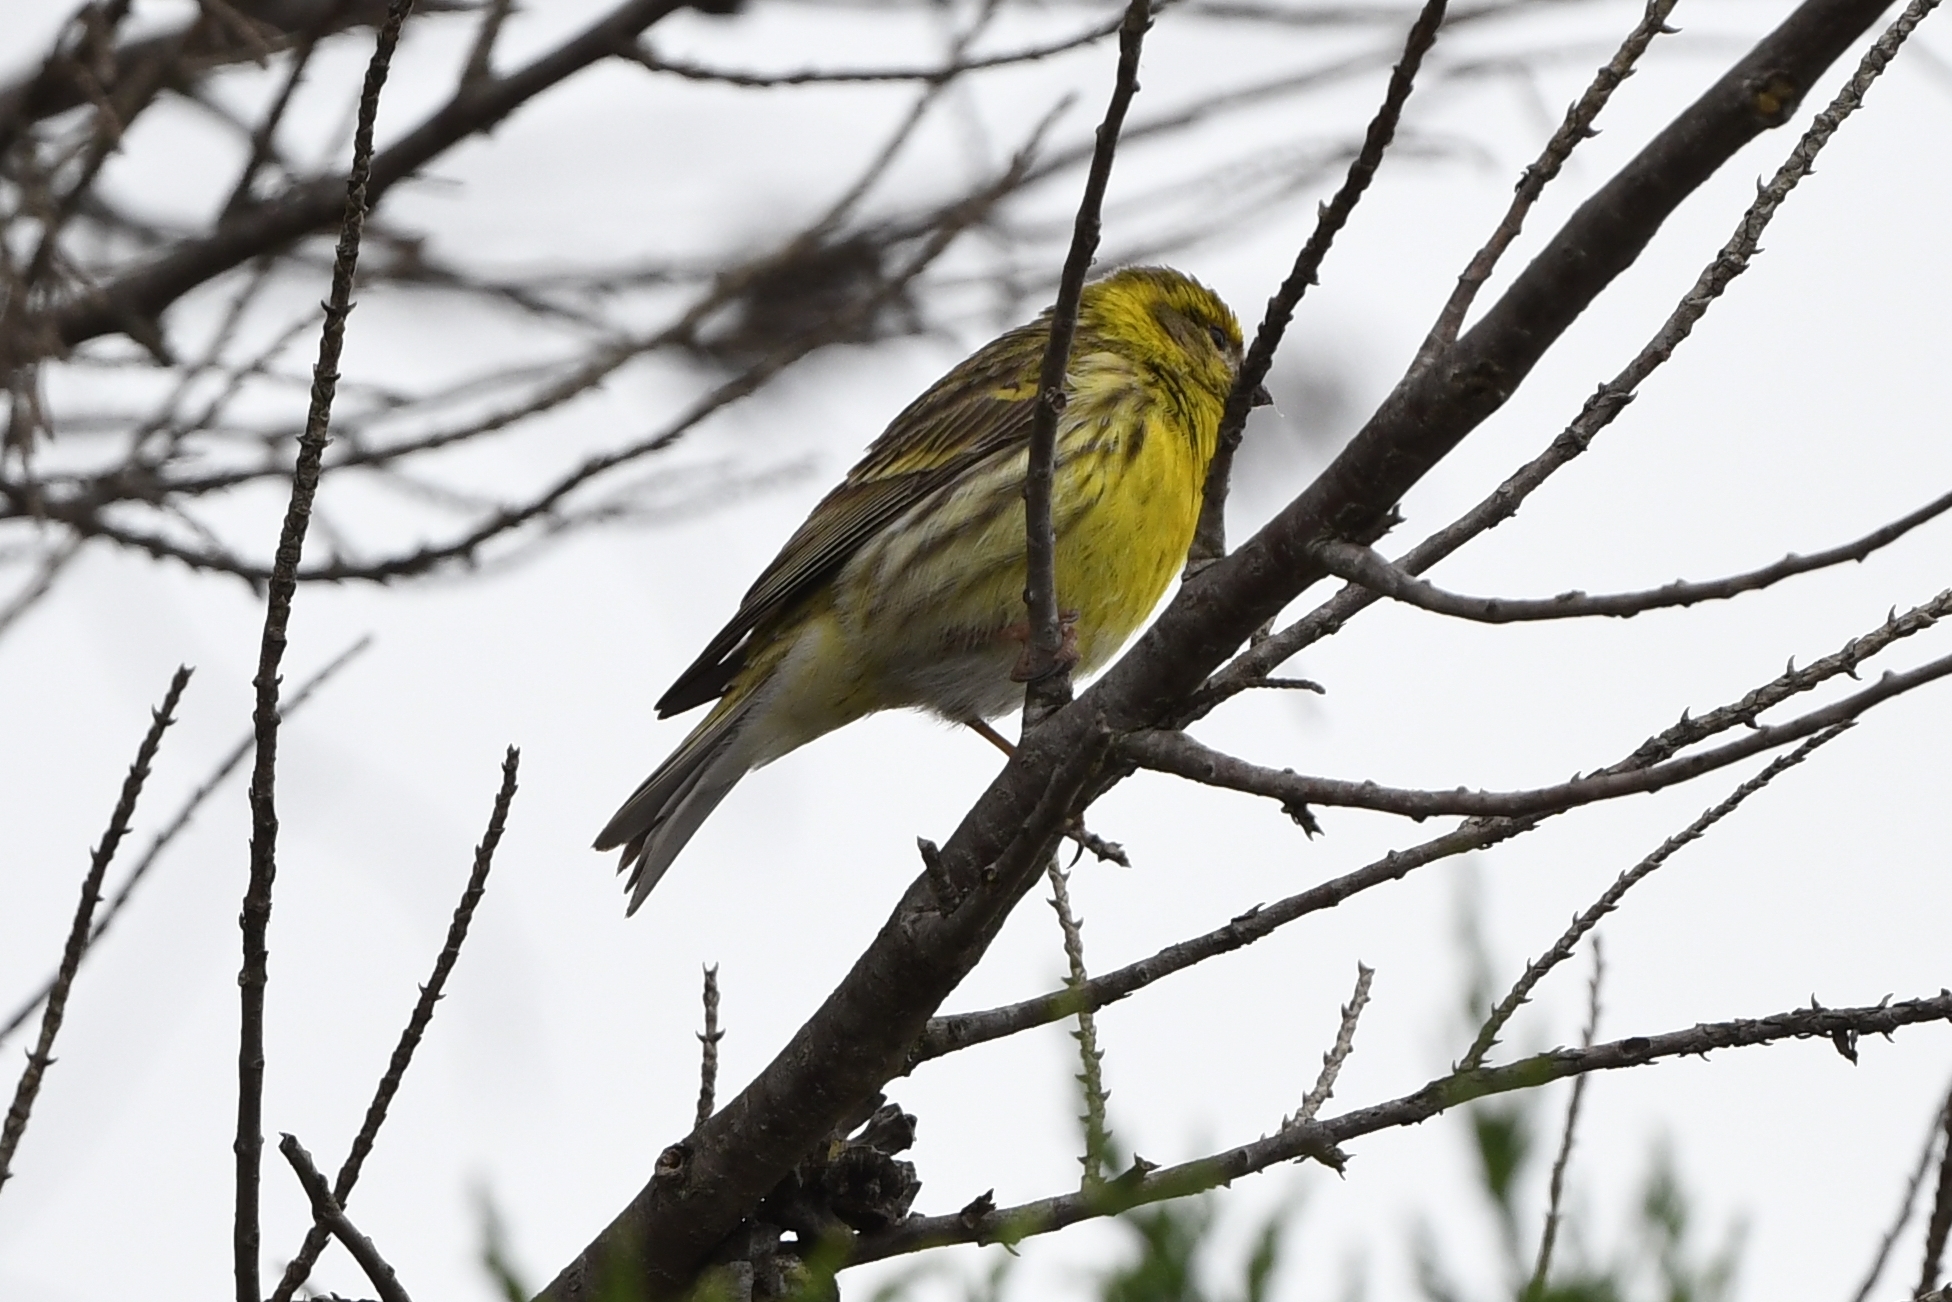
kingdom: Animalia
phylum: Chordata
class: Aves
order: Passeriformes
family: Fringillidae
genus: Serinus
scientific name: Serinus serinus
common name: European serin
